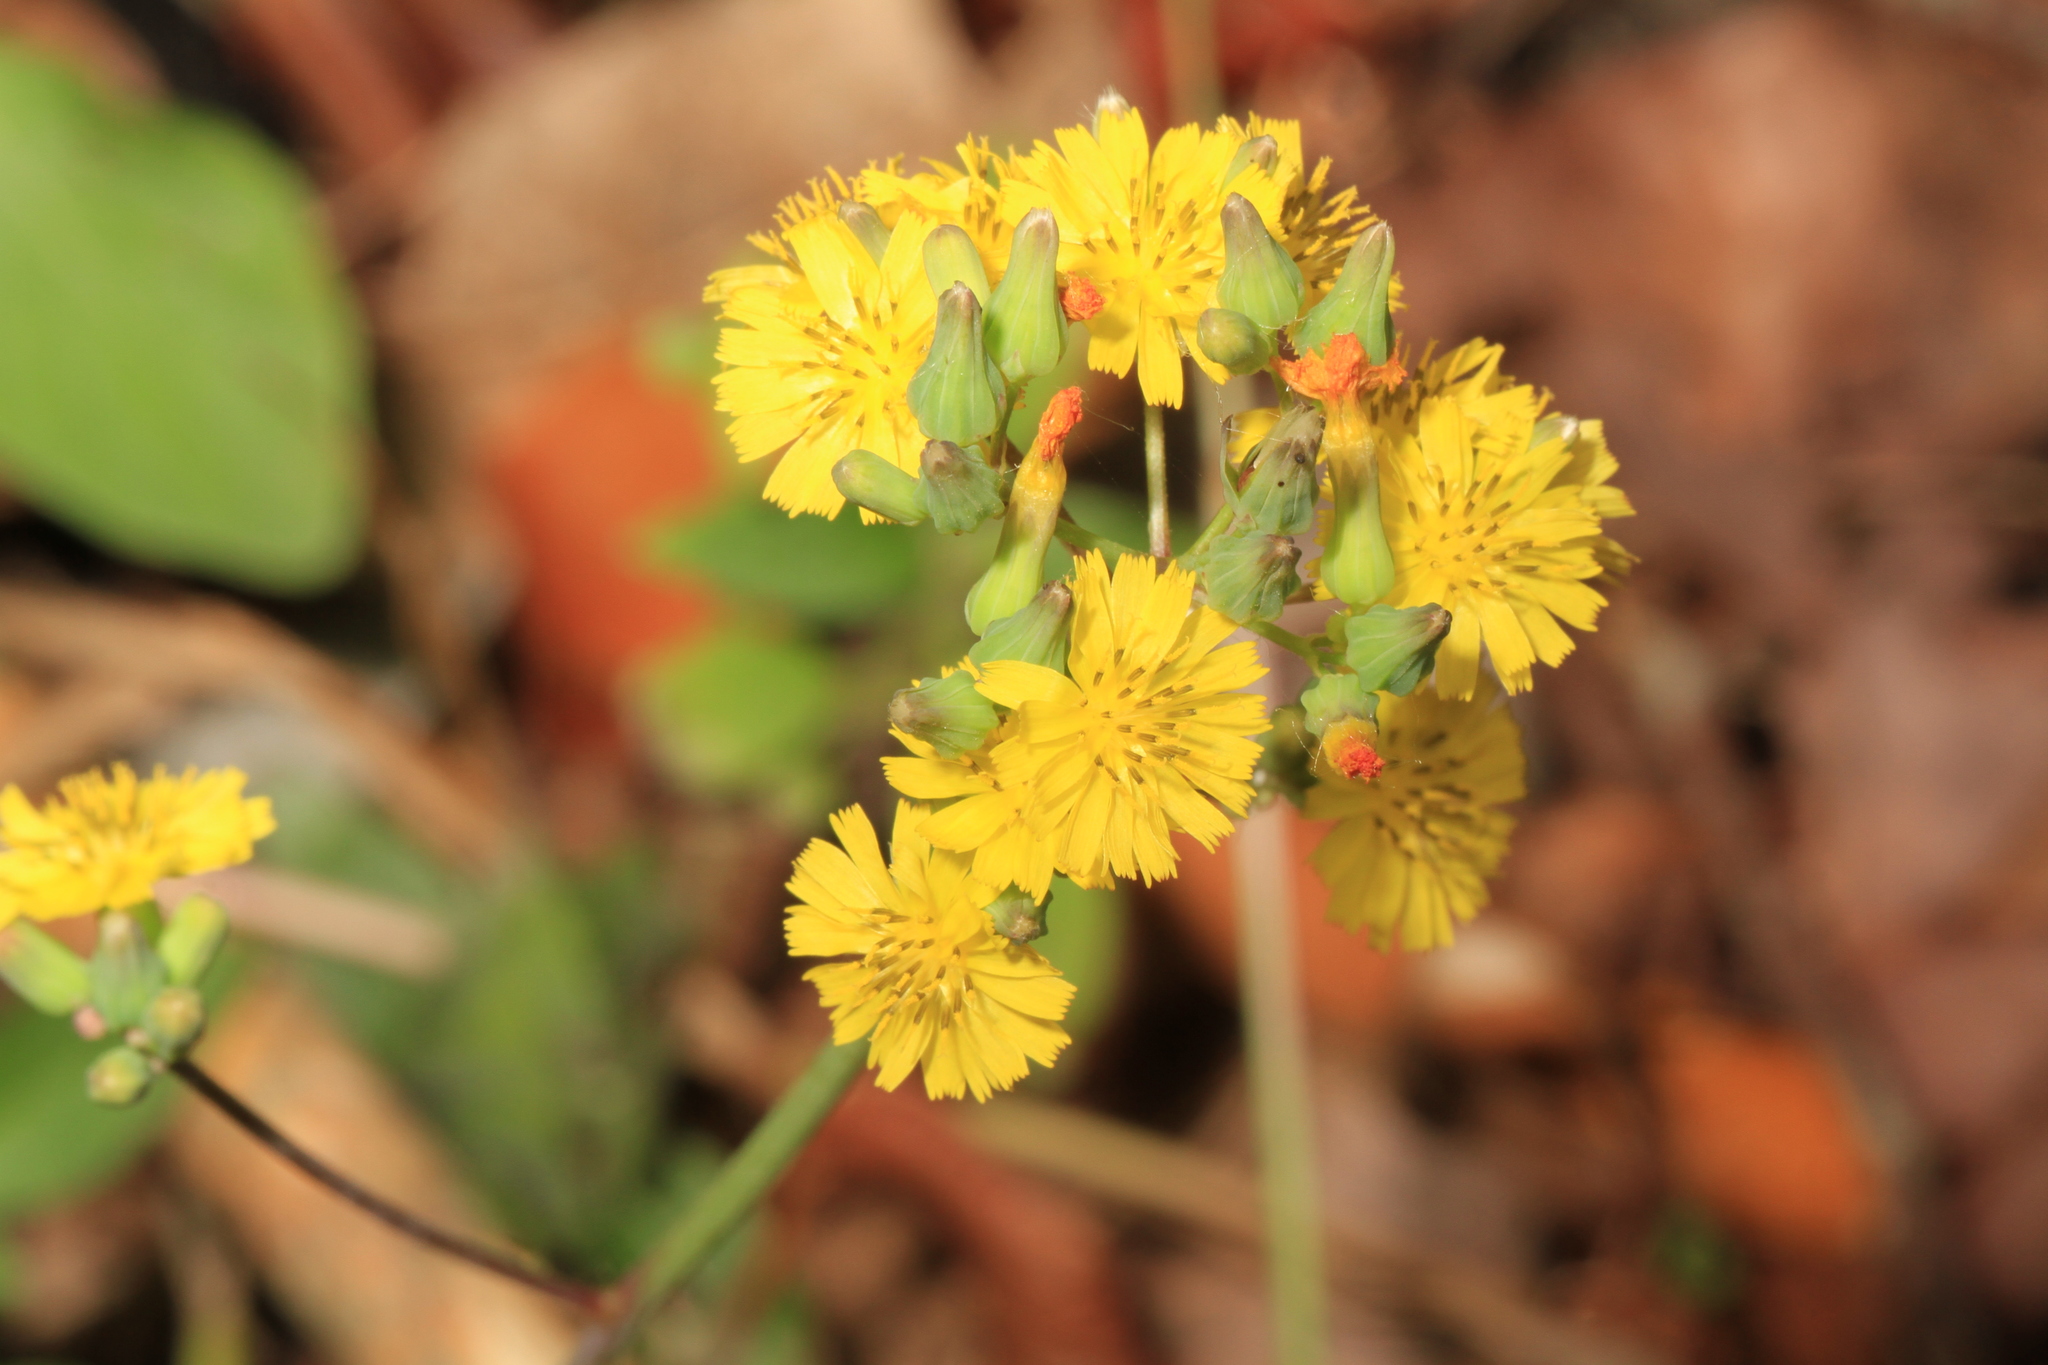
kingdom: Plantae
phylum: Tracheophyta
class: Magnoliopsida
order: Asterales
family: Asteraceae
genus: Youngia
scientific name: Youngia japonica
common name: Oriental false hawksbeard
